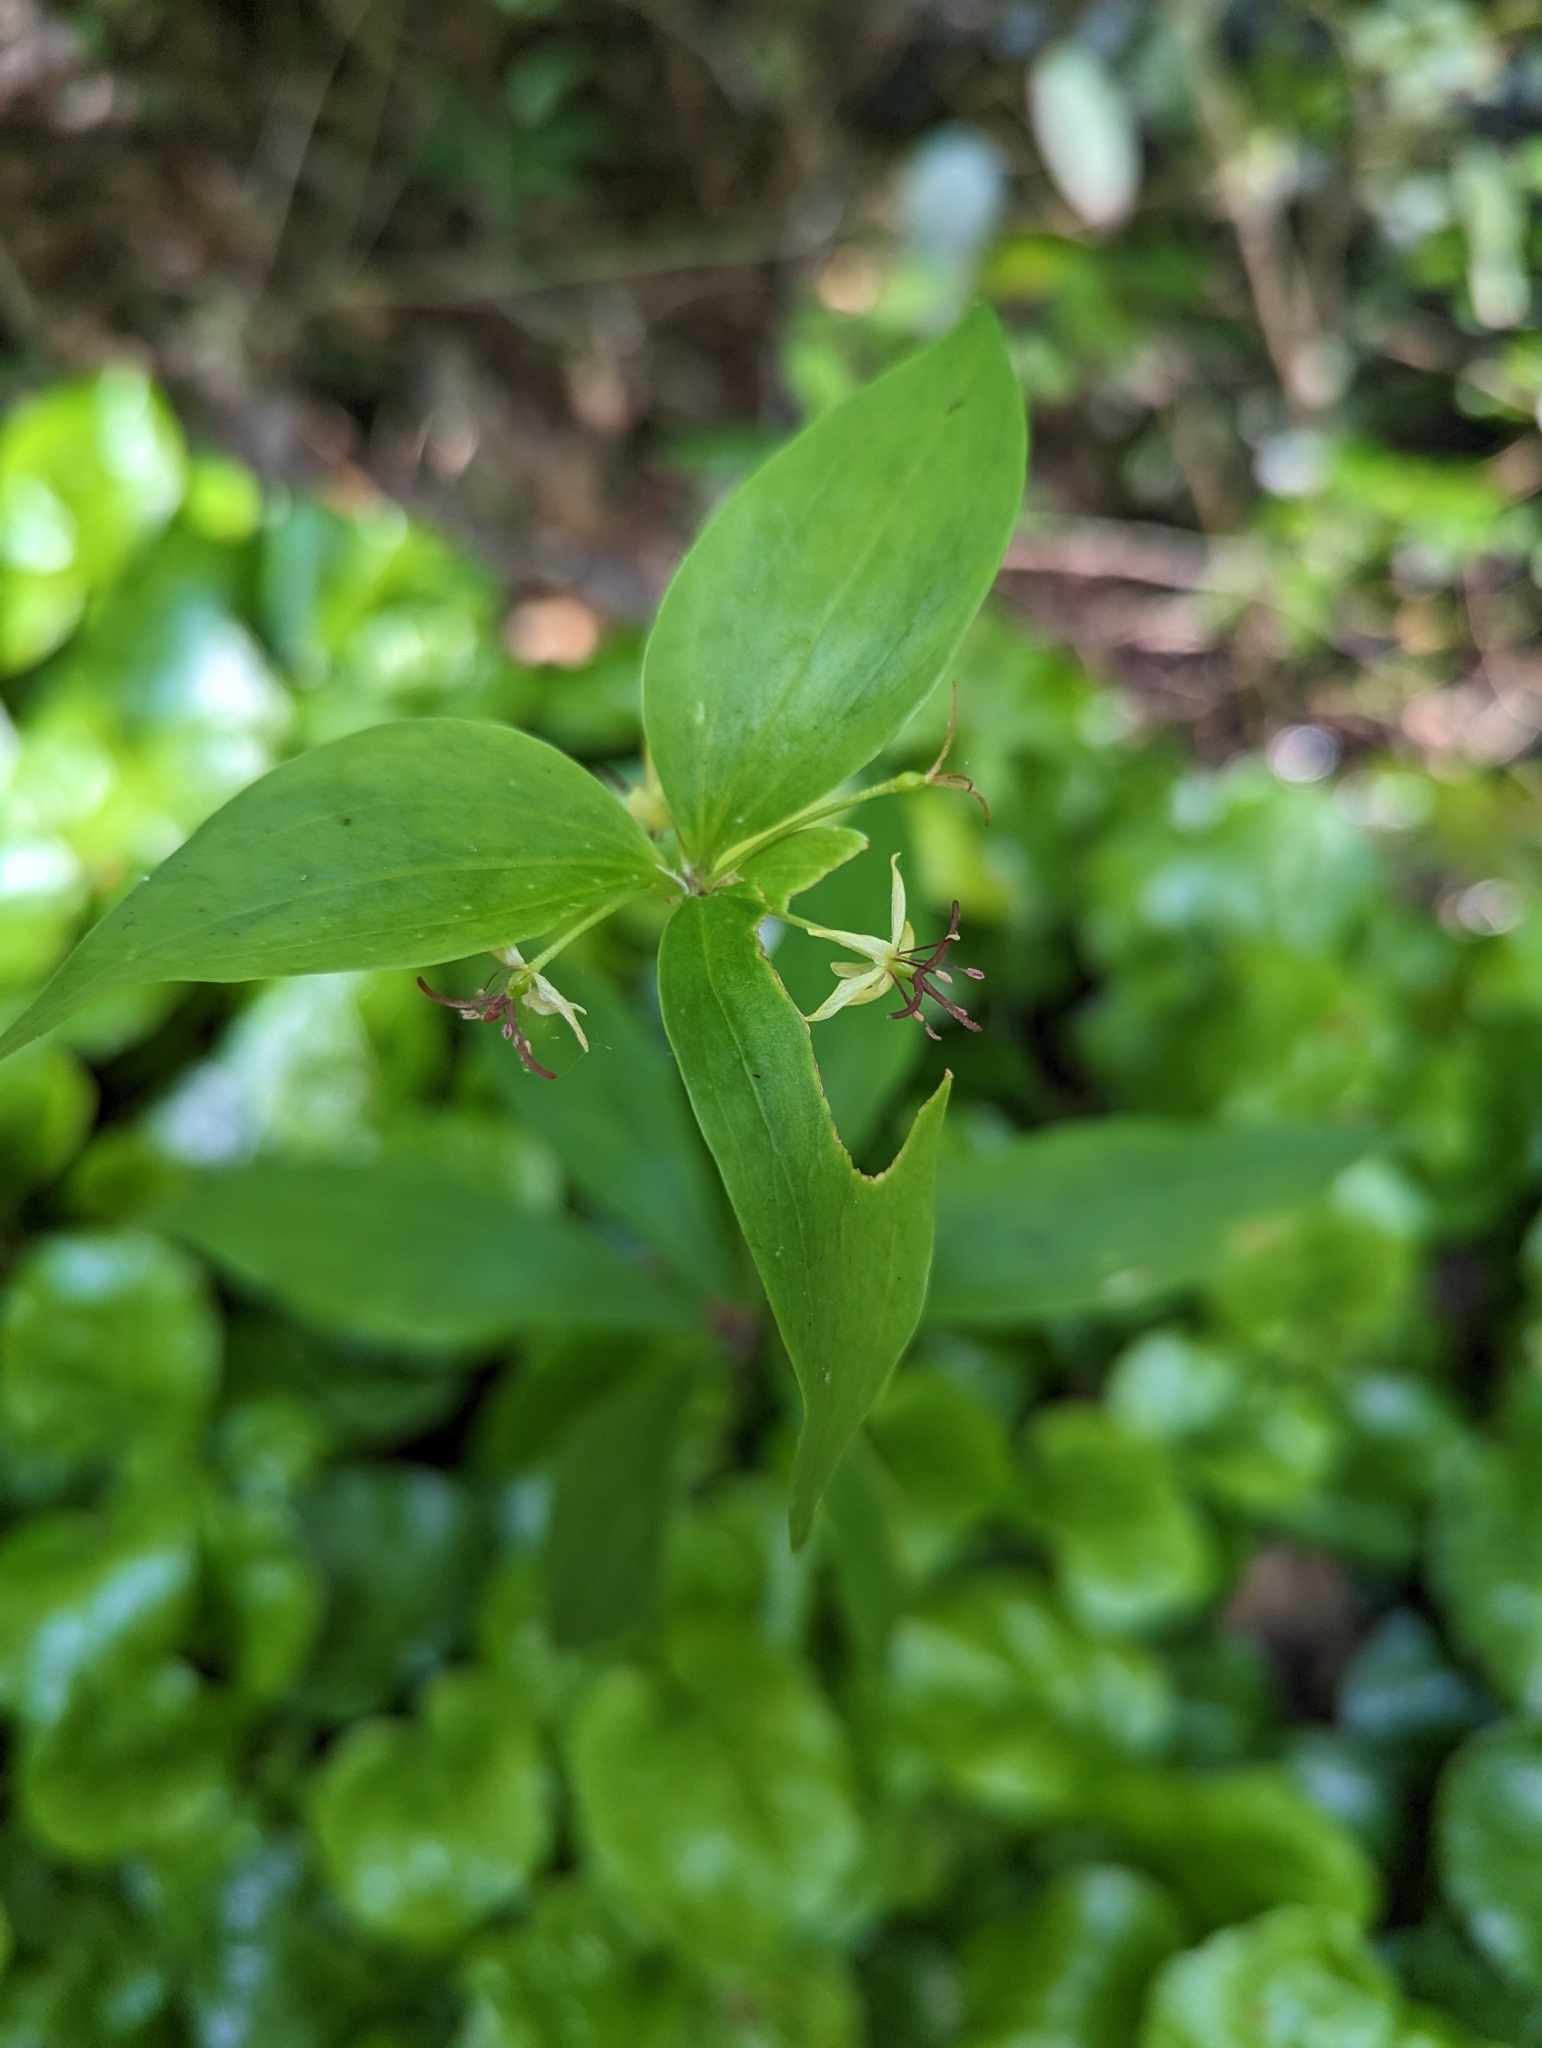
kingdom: Plantae
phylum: Tracheophyta
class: Liliopsida
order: Liliales
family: Liliaceae
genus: Medeola
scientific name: Medeola virginiana
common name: Indian cucumber-root
